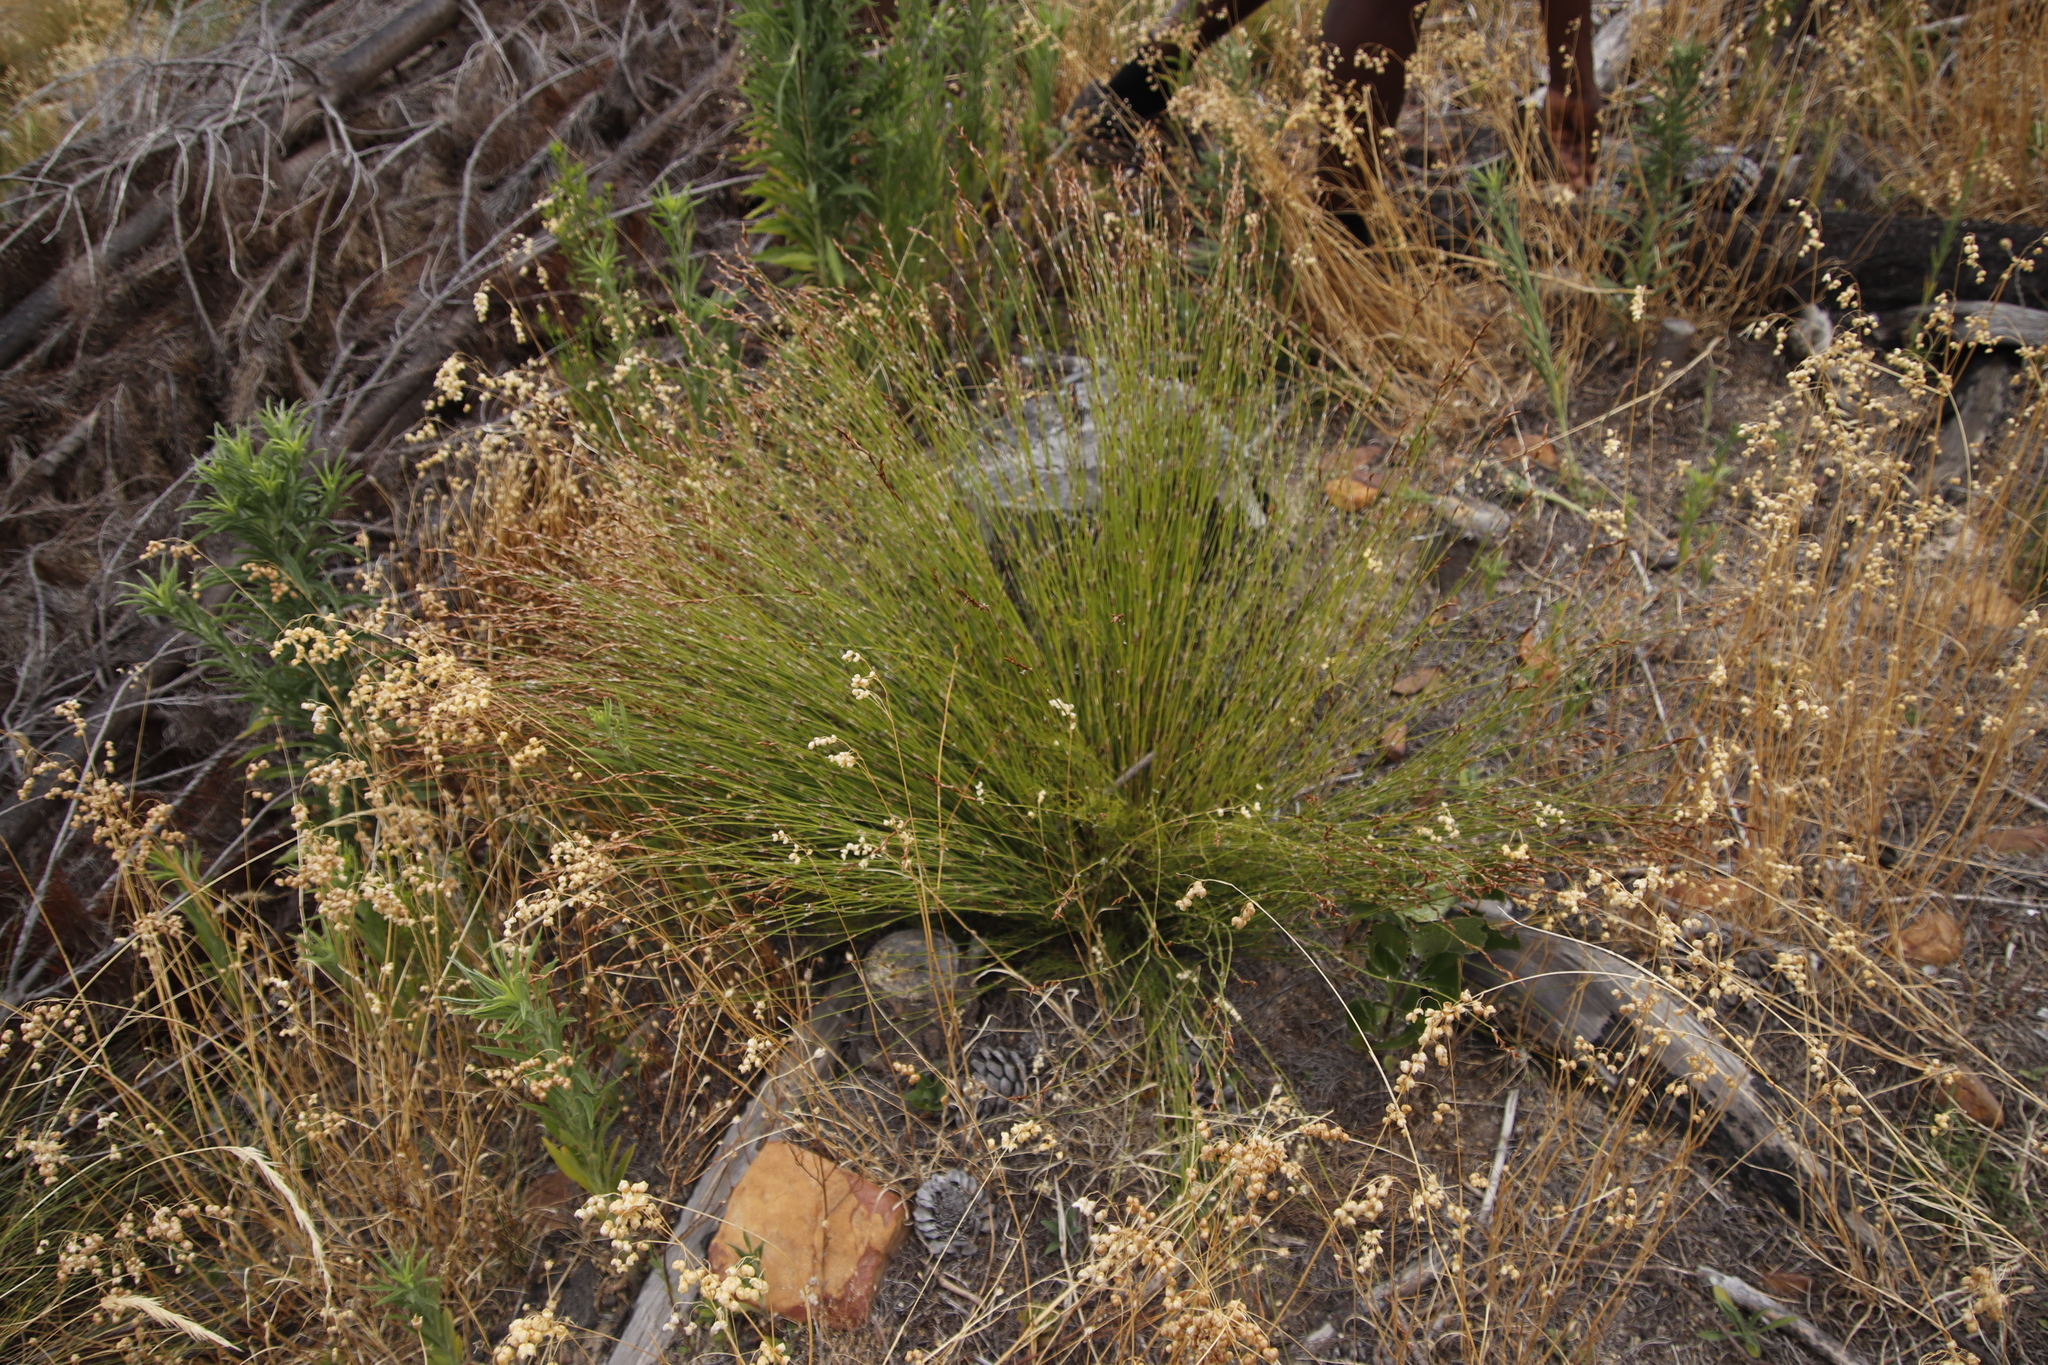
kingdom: Plantae
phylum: Tracheophyta
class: Liliopsida
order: Poales
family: Restionaceae
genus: Restio
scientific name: Restio triticeus
